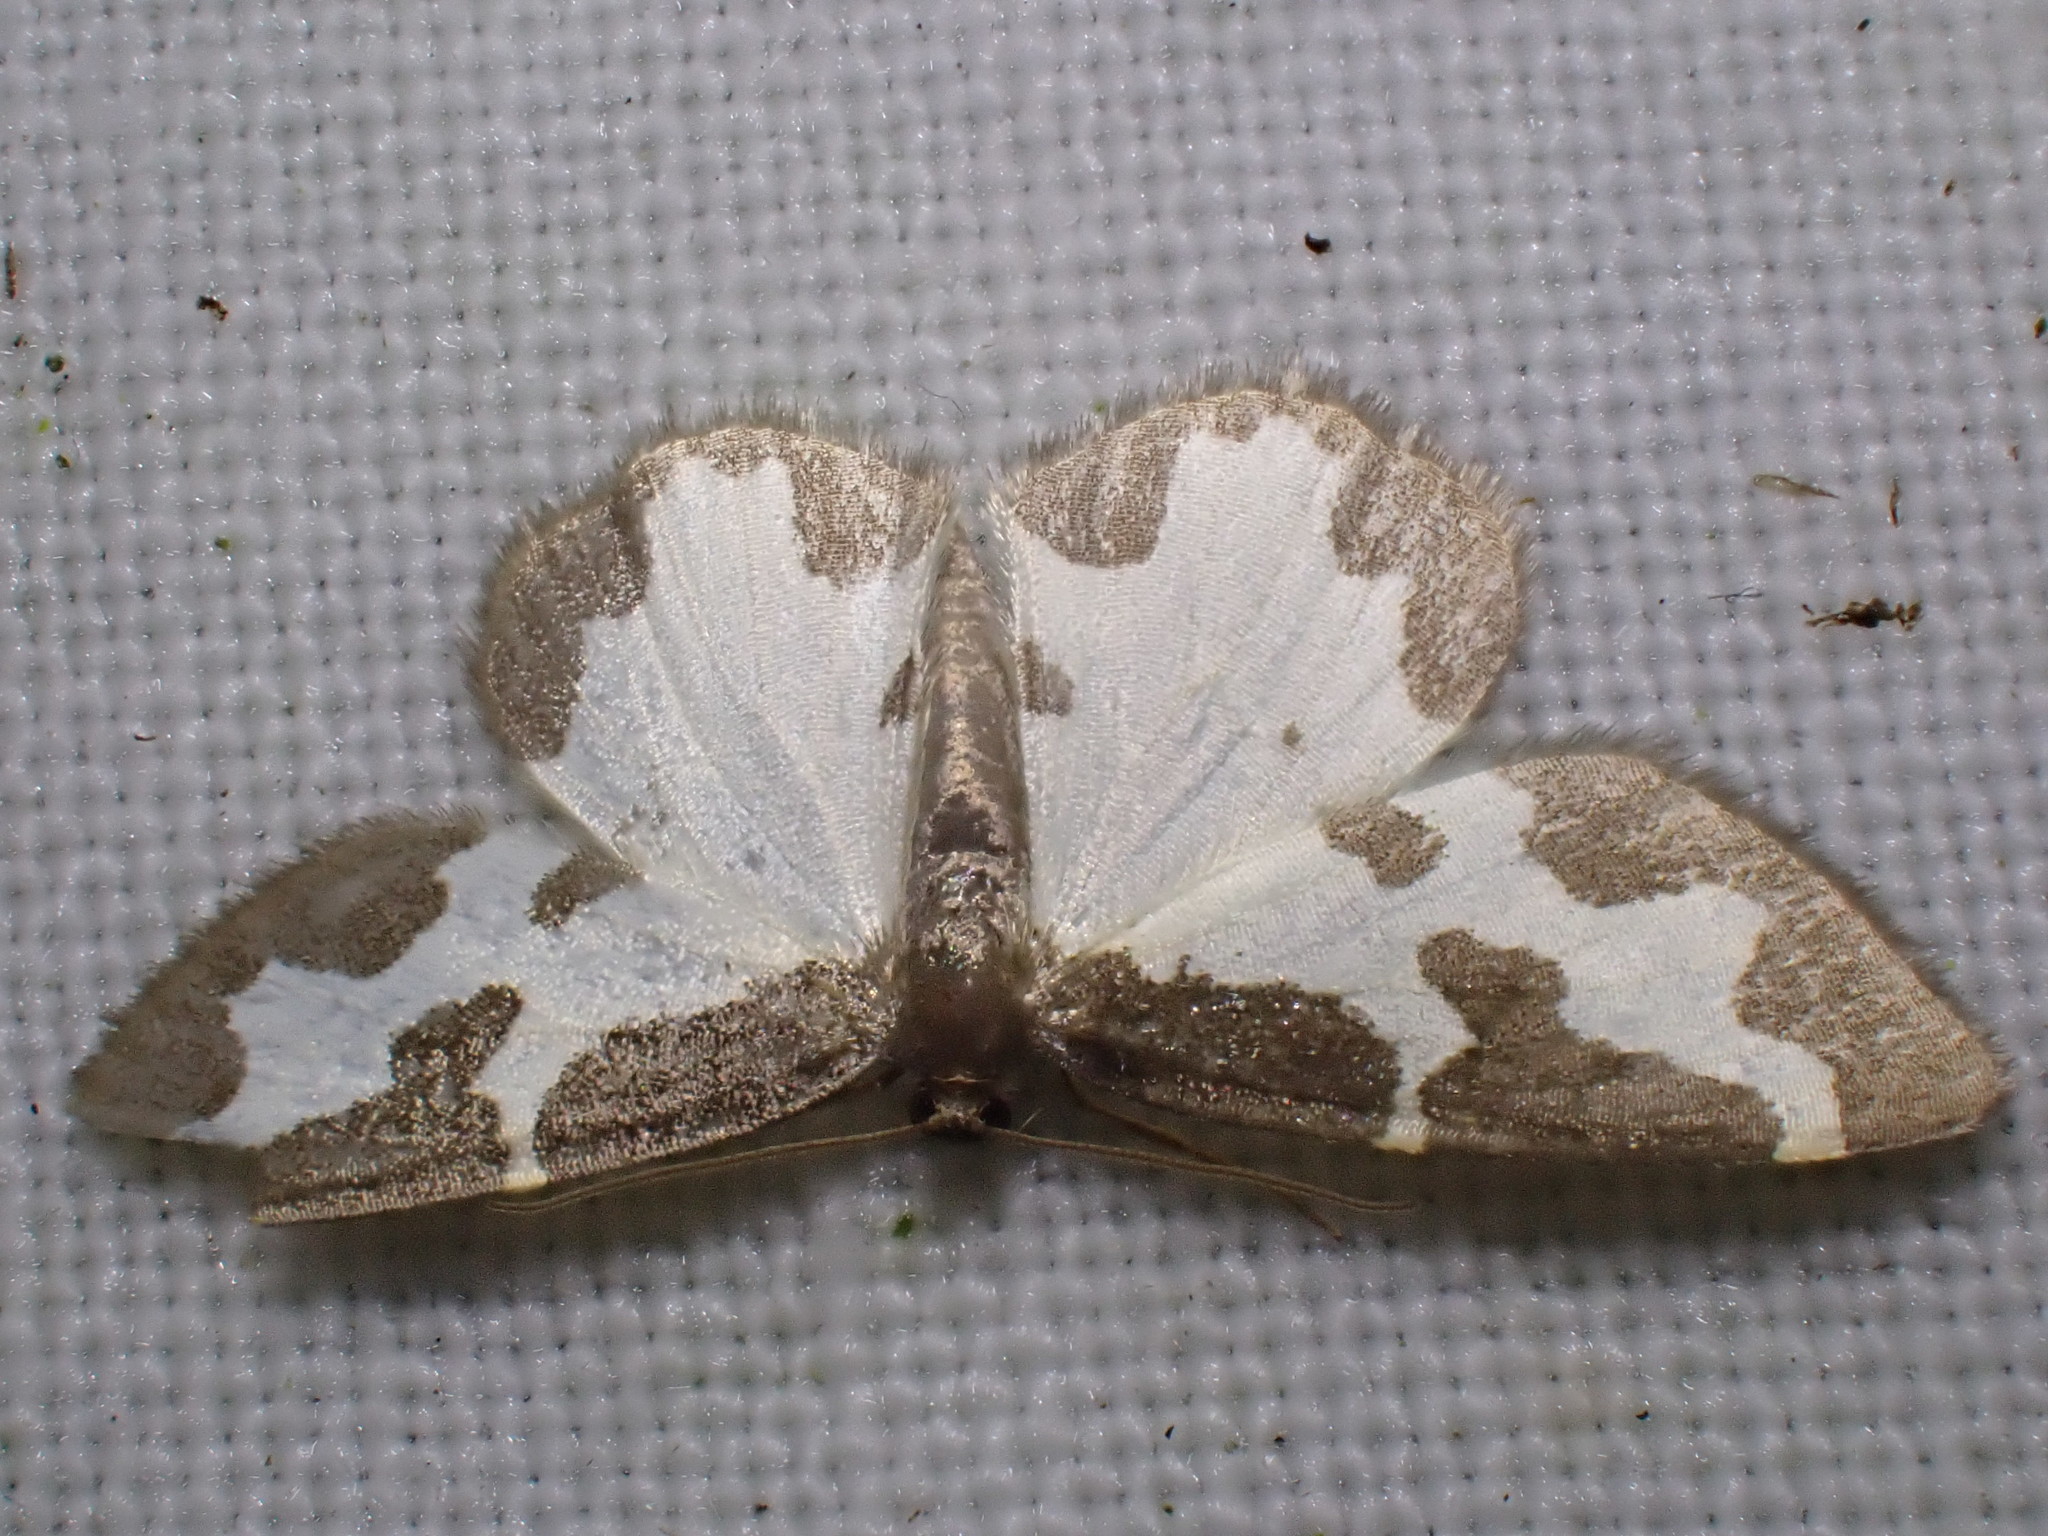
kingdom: Animalia
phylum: Arthropoda
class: Insecta
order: Lepidoptera
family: Geometridae
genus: Lomaspilis
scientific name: Lomaspilis marginata
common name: Clouded border
